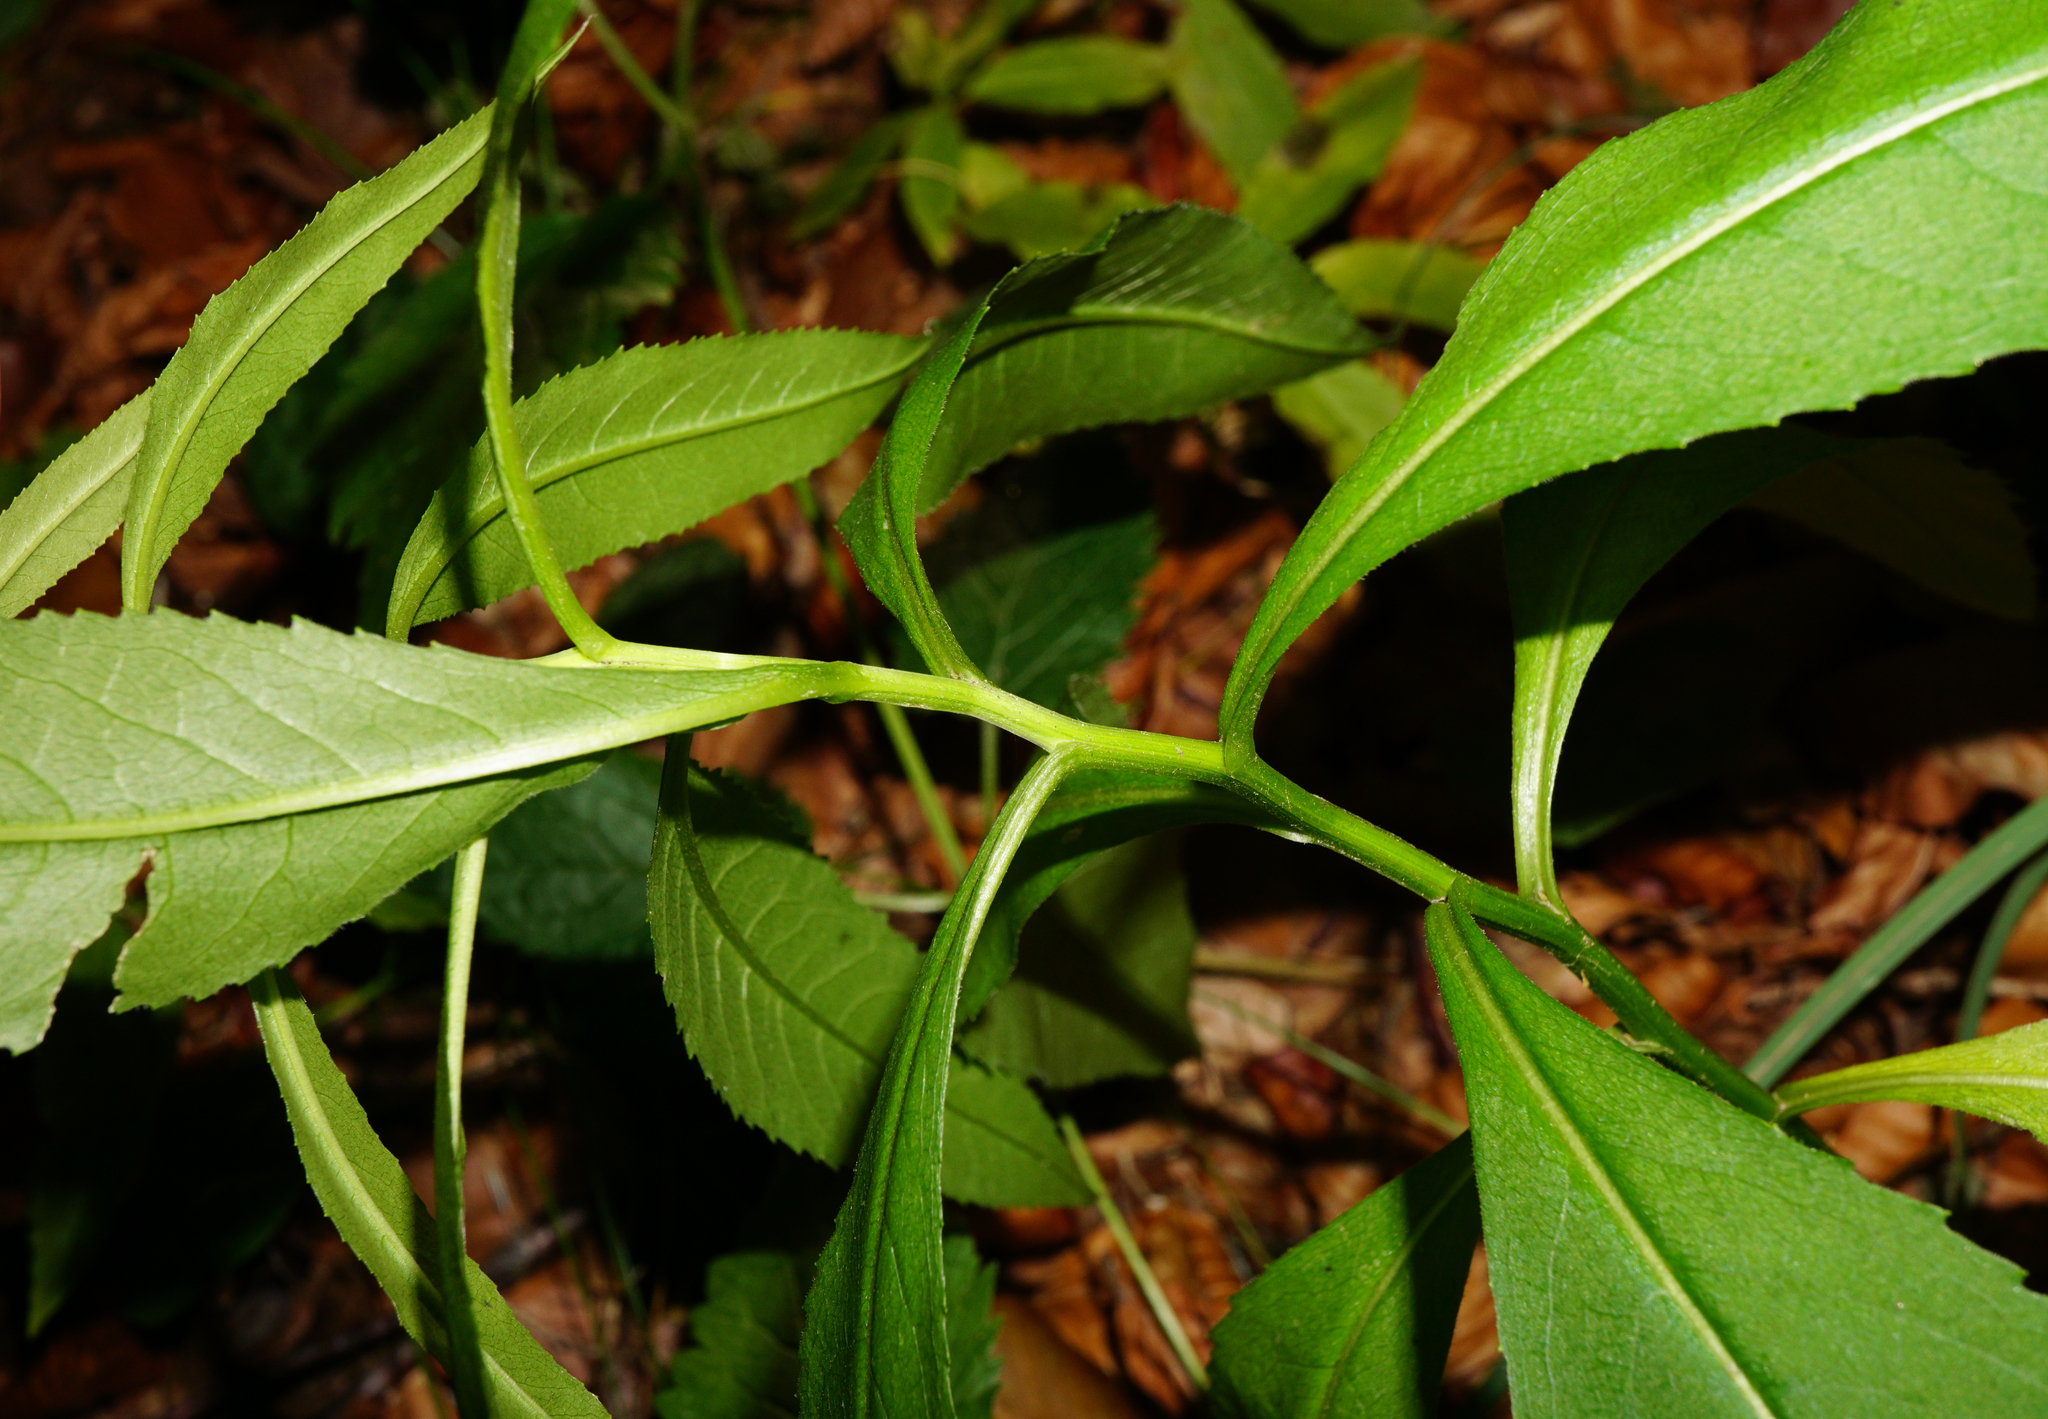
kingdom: Plantae
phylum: Tracheophyta
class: Magnoliopsida
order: Asterales
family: Asteraceae
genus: Senecio
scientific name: Senecio ovatus
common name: Wood ragwort
